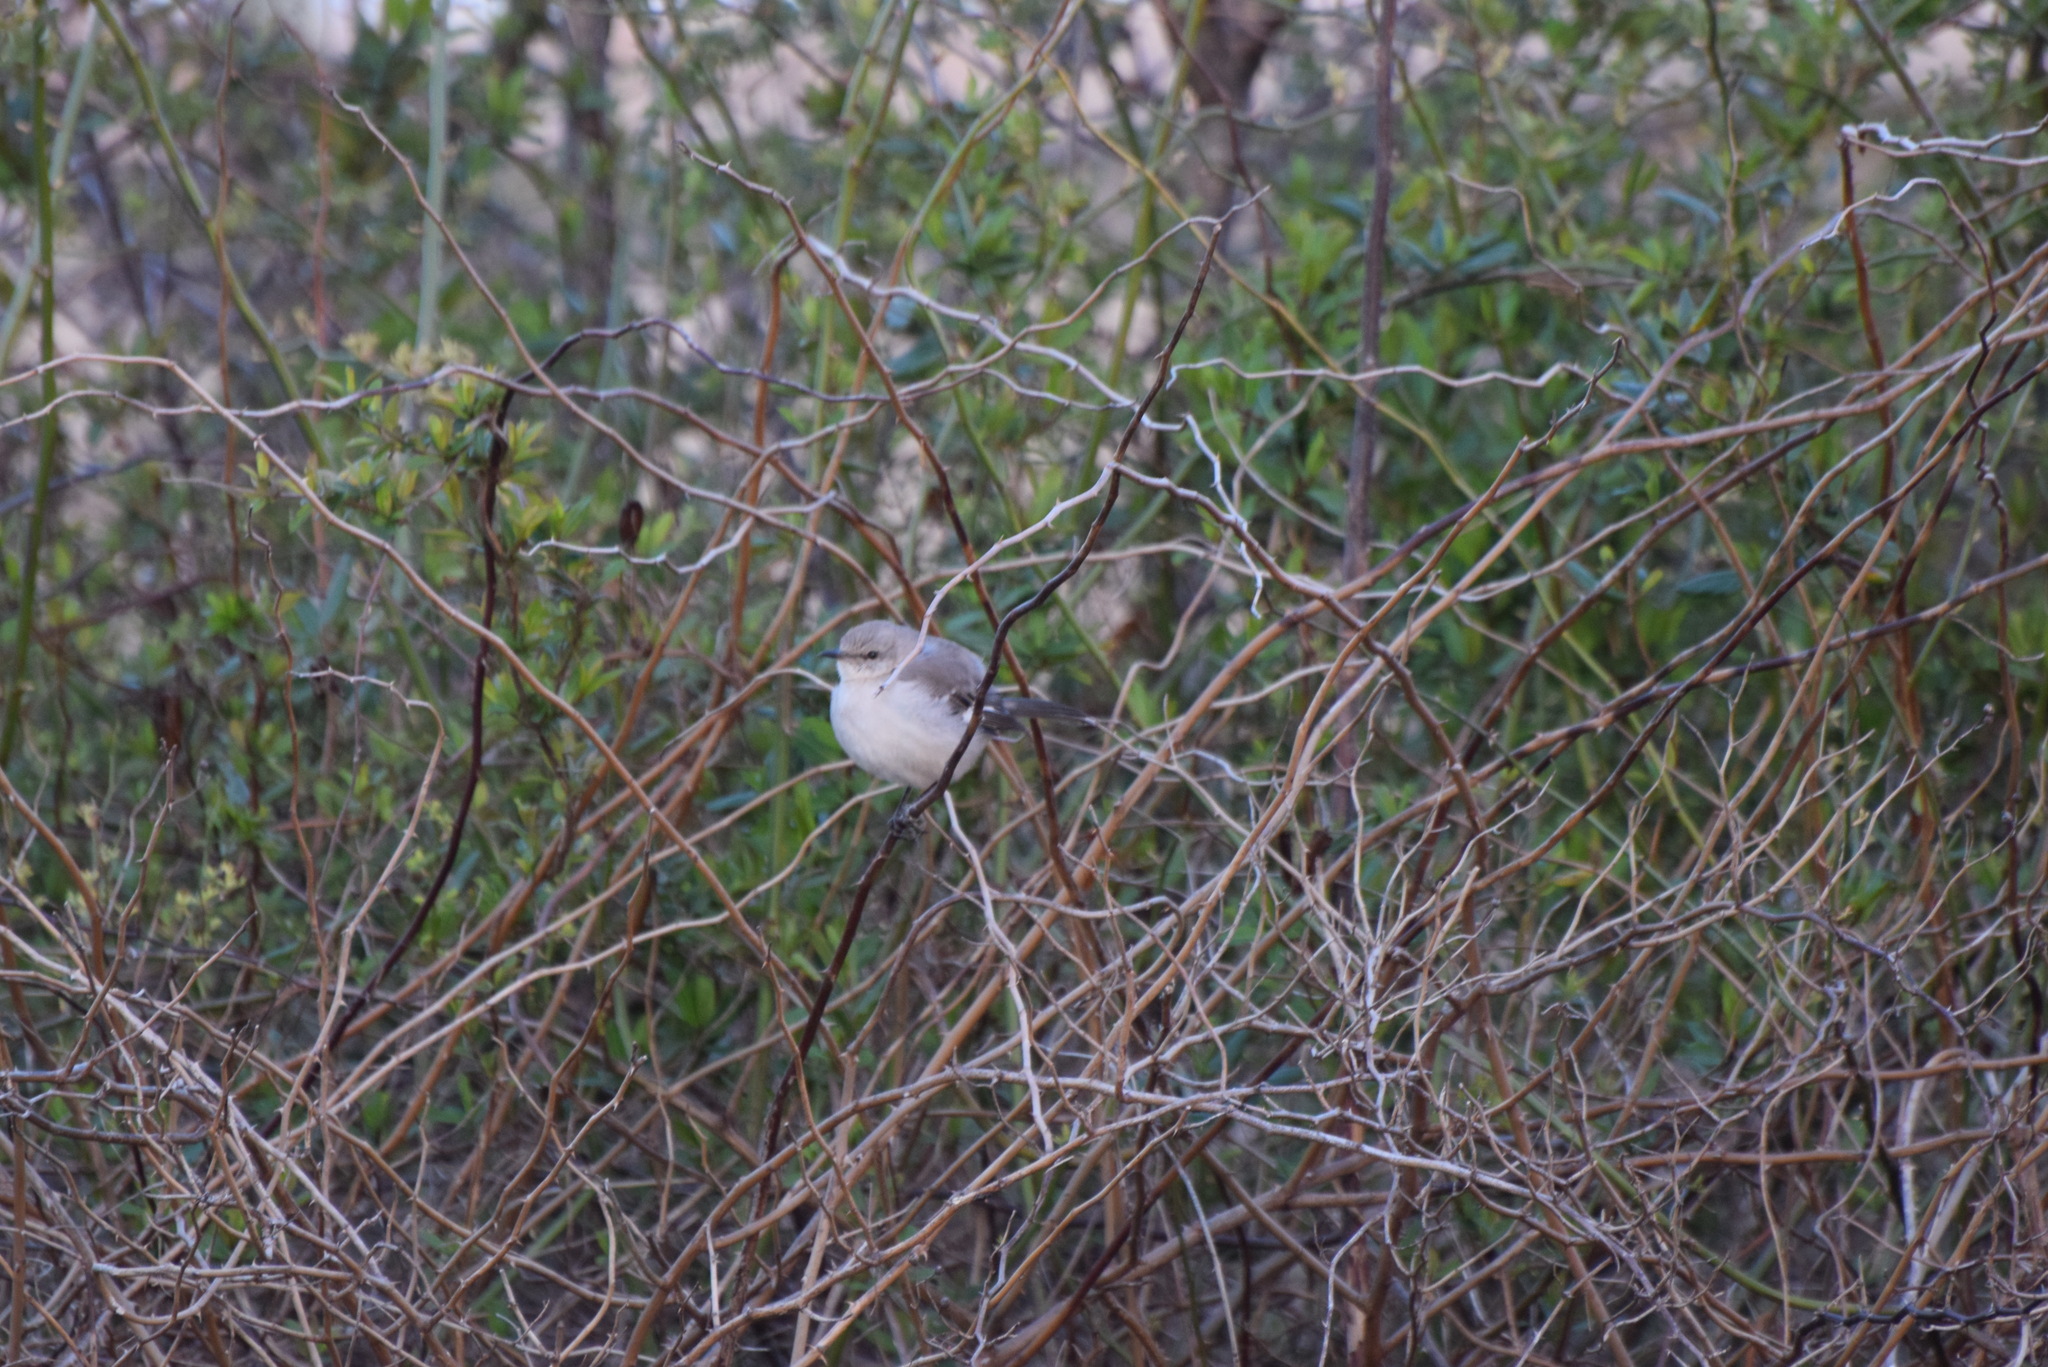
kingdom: Animalia
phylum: Chordata
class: Aves
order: Passeriformes
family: Mimidae
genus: Mimus
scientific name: Mimus polyglottos
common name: Northern mockingbird
